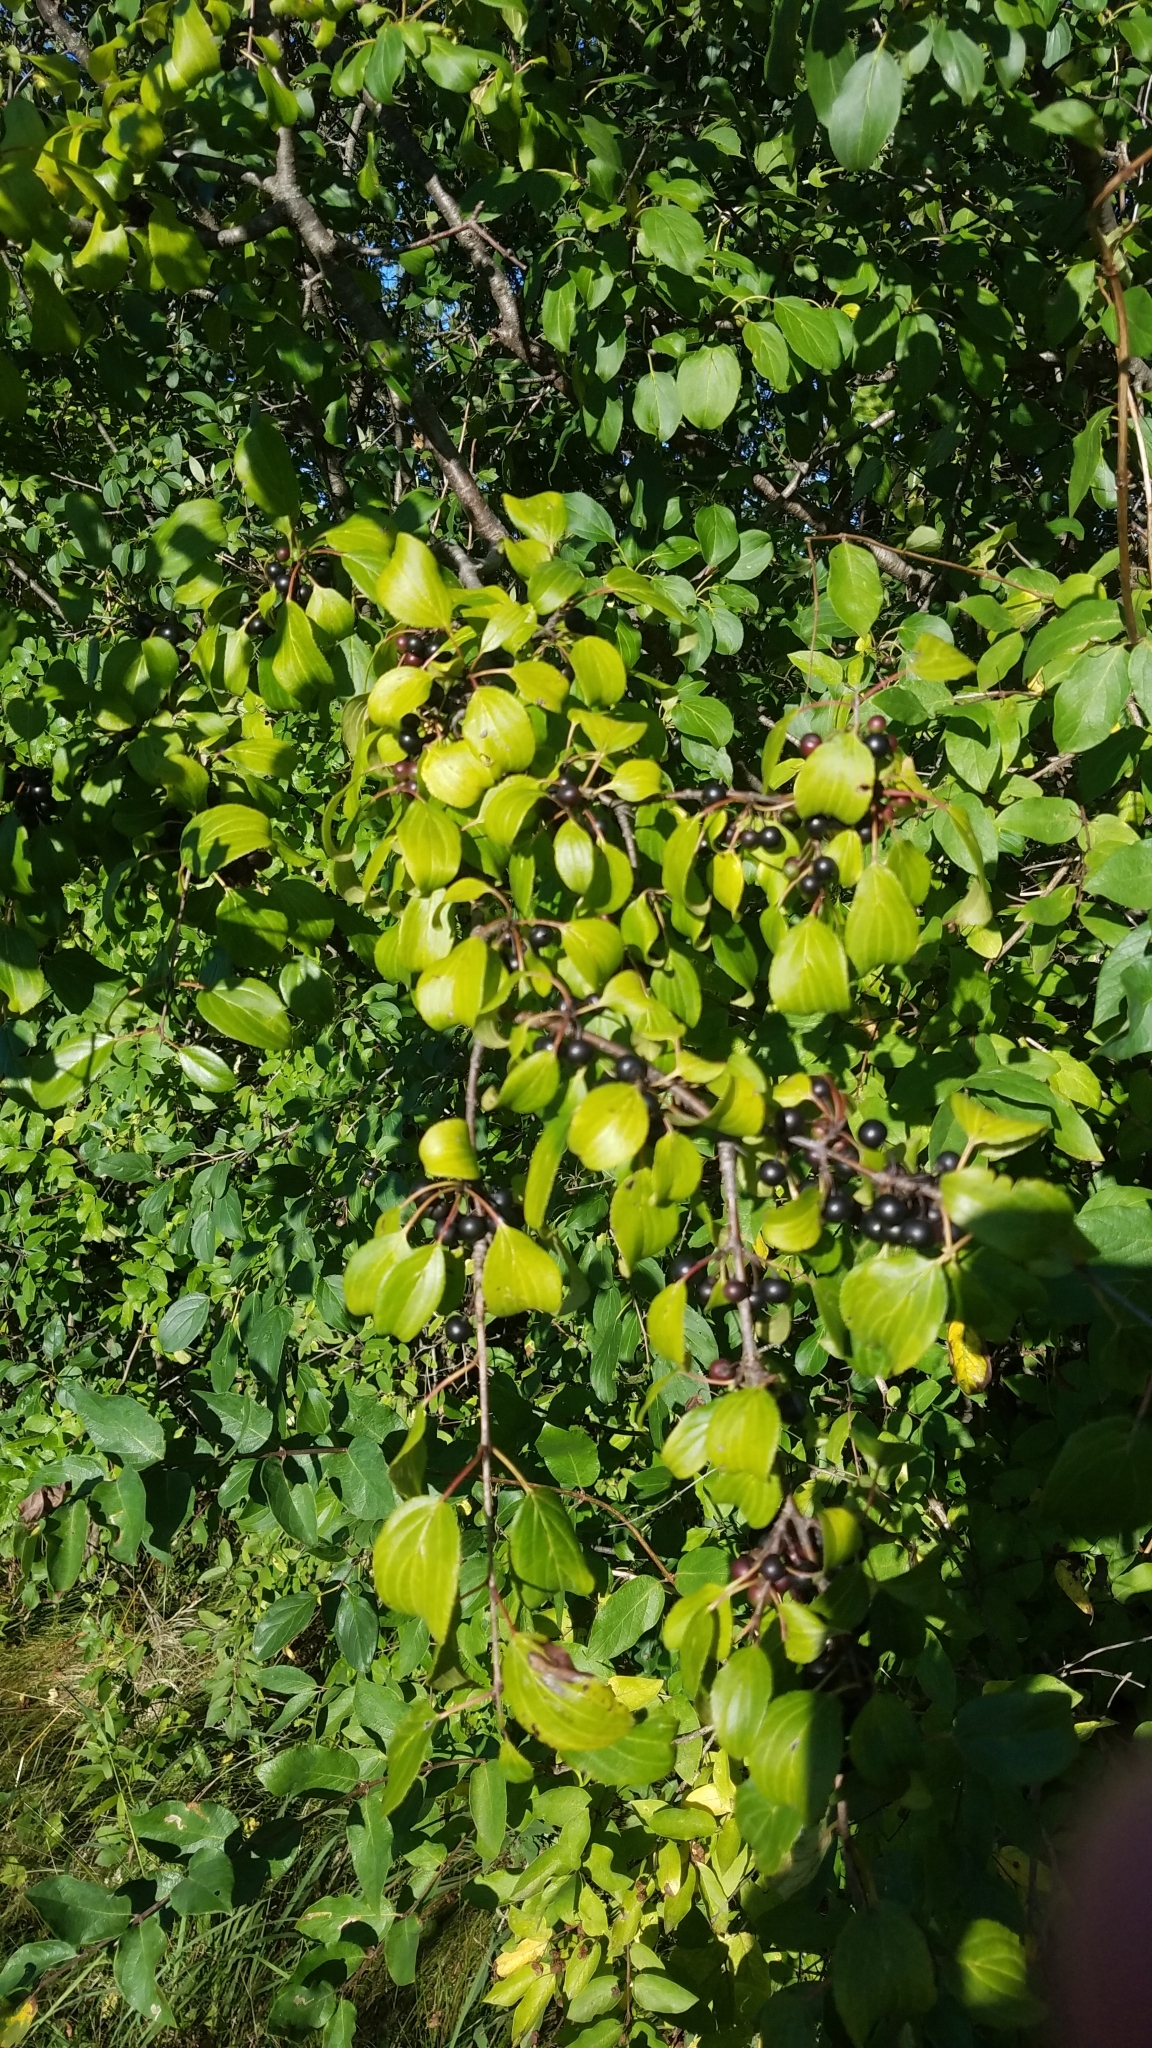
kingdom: Plantae
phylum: Tracheophyta
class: Magnoliopsida
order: Rosales
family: Rhamnaceae
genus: Rhamnus
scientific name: Rhamnus cathartica
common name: Common buckthorn
